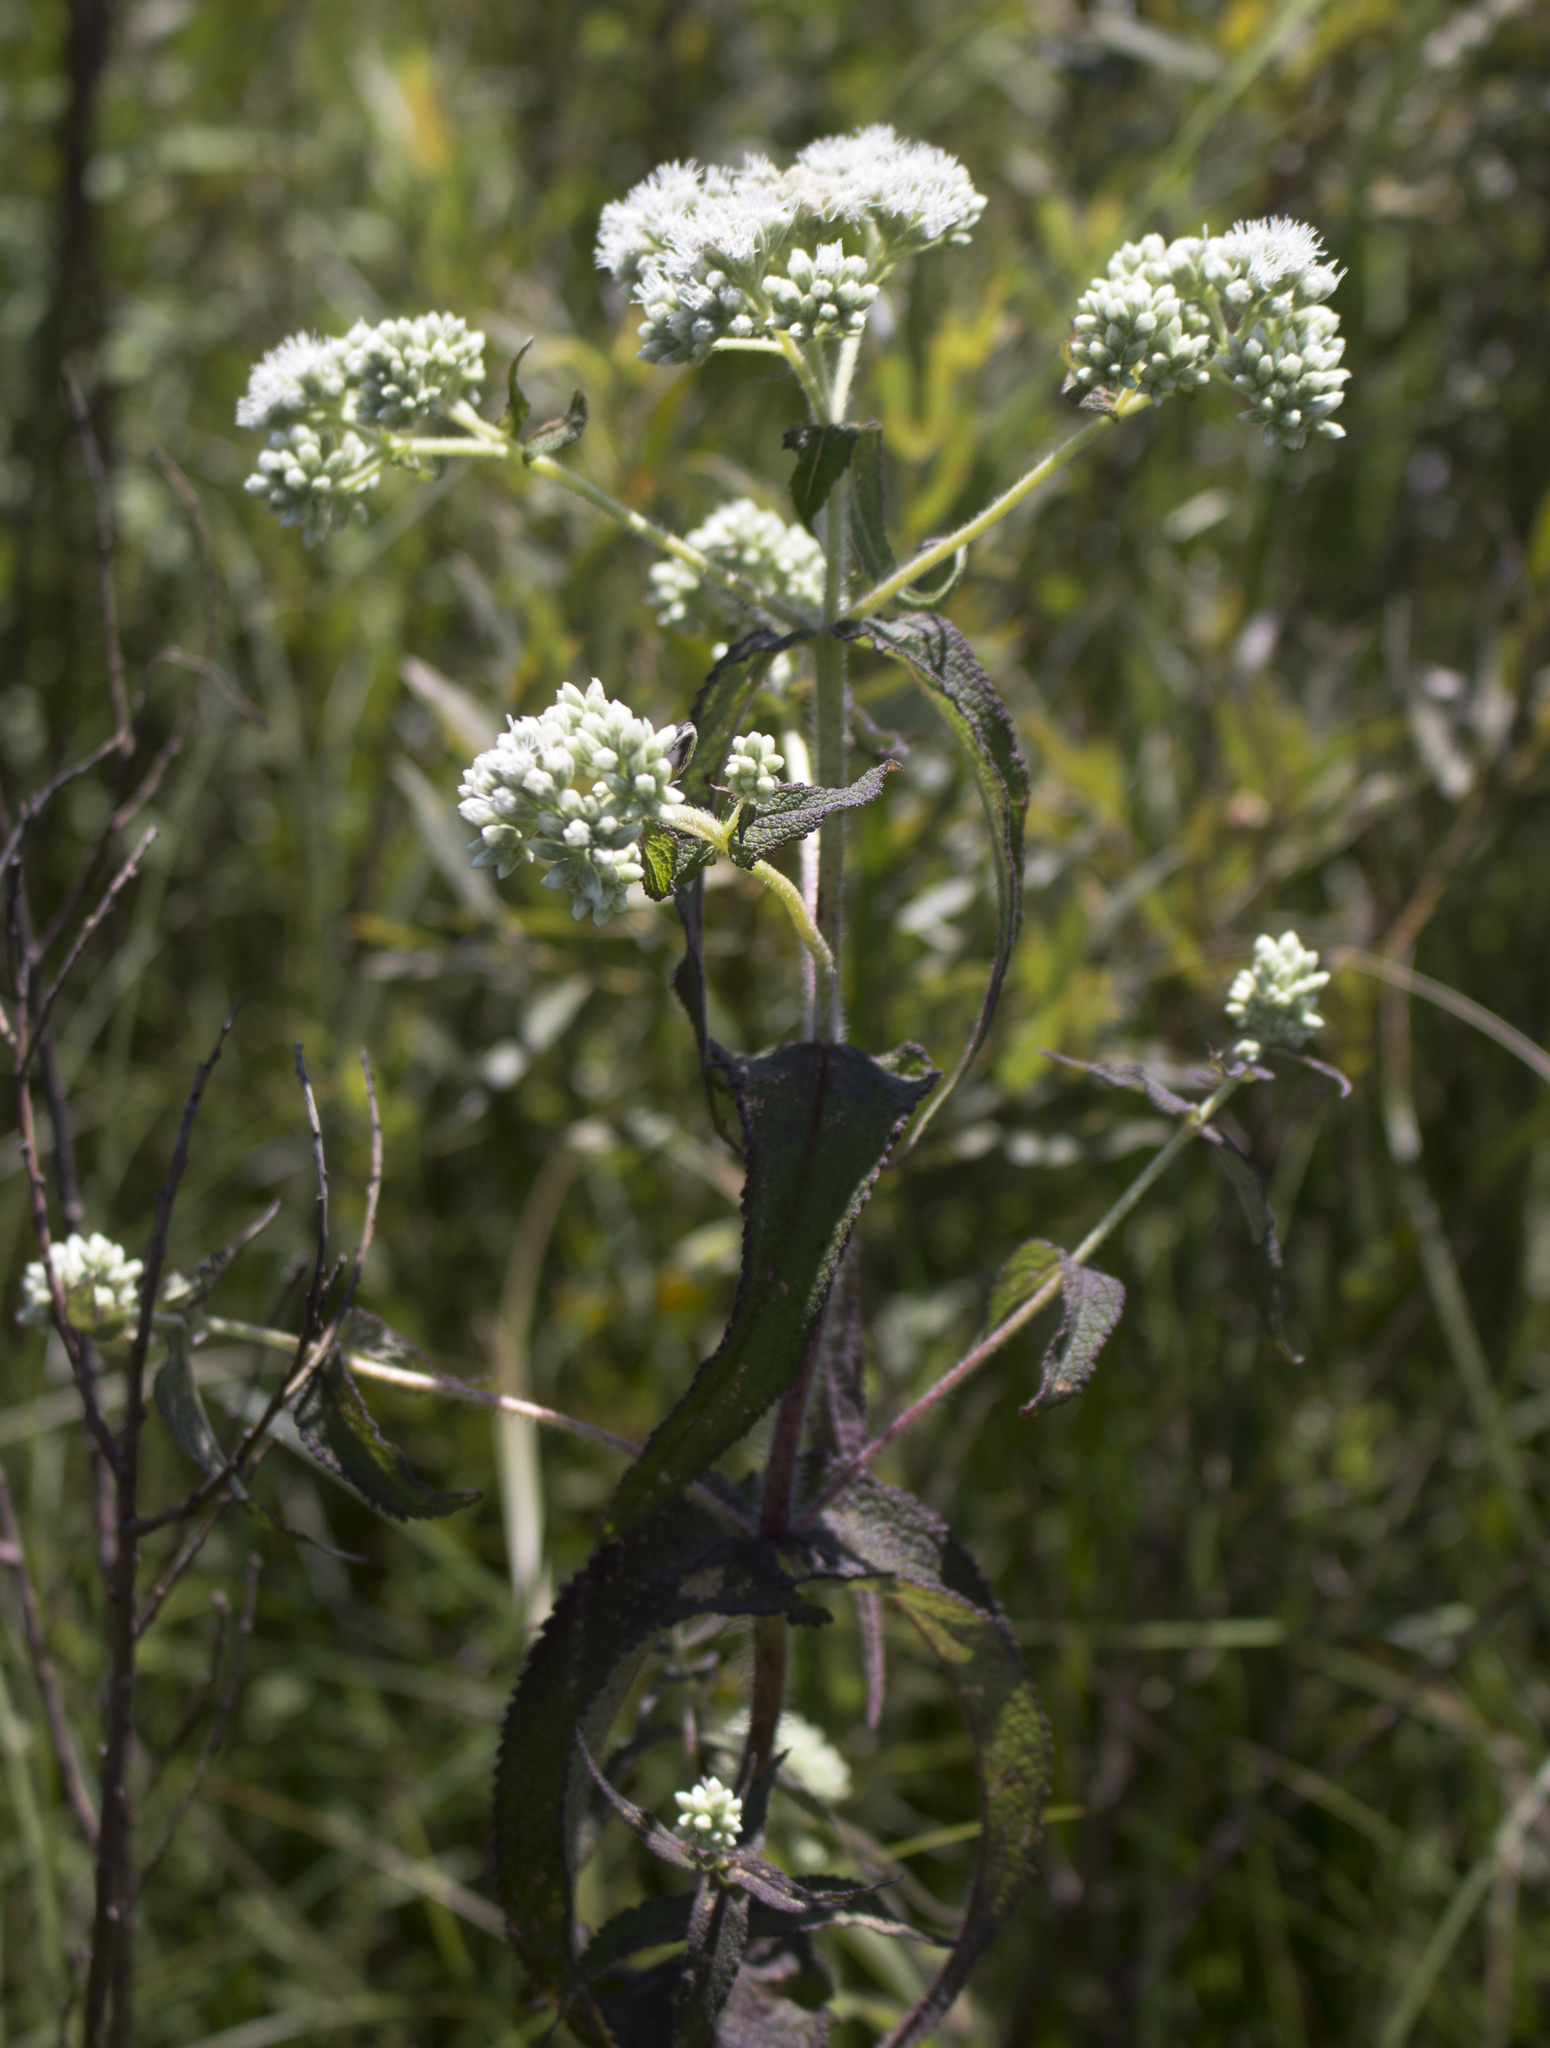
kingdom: Plantae
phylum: Tracheophyta
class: Magnoliopsida
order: Asterales
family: Asteraceae
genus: Eupatorium
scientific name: Eupatorium perfoliatum
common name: Boneset
